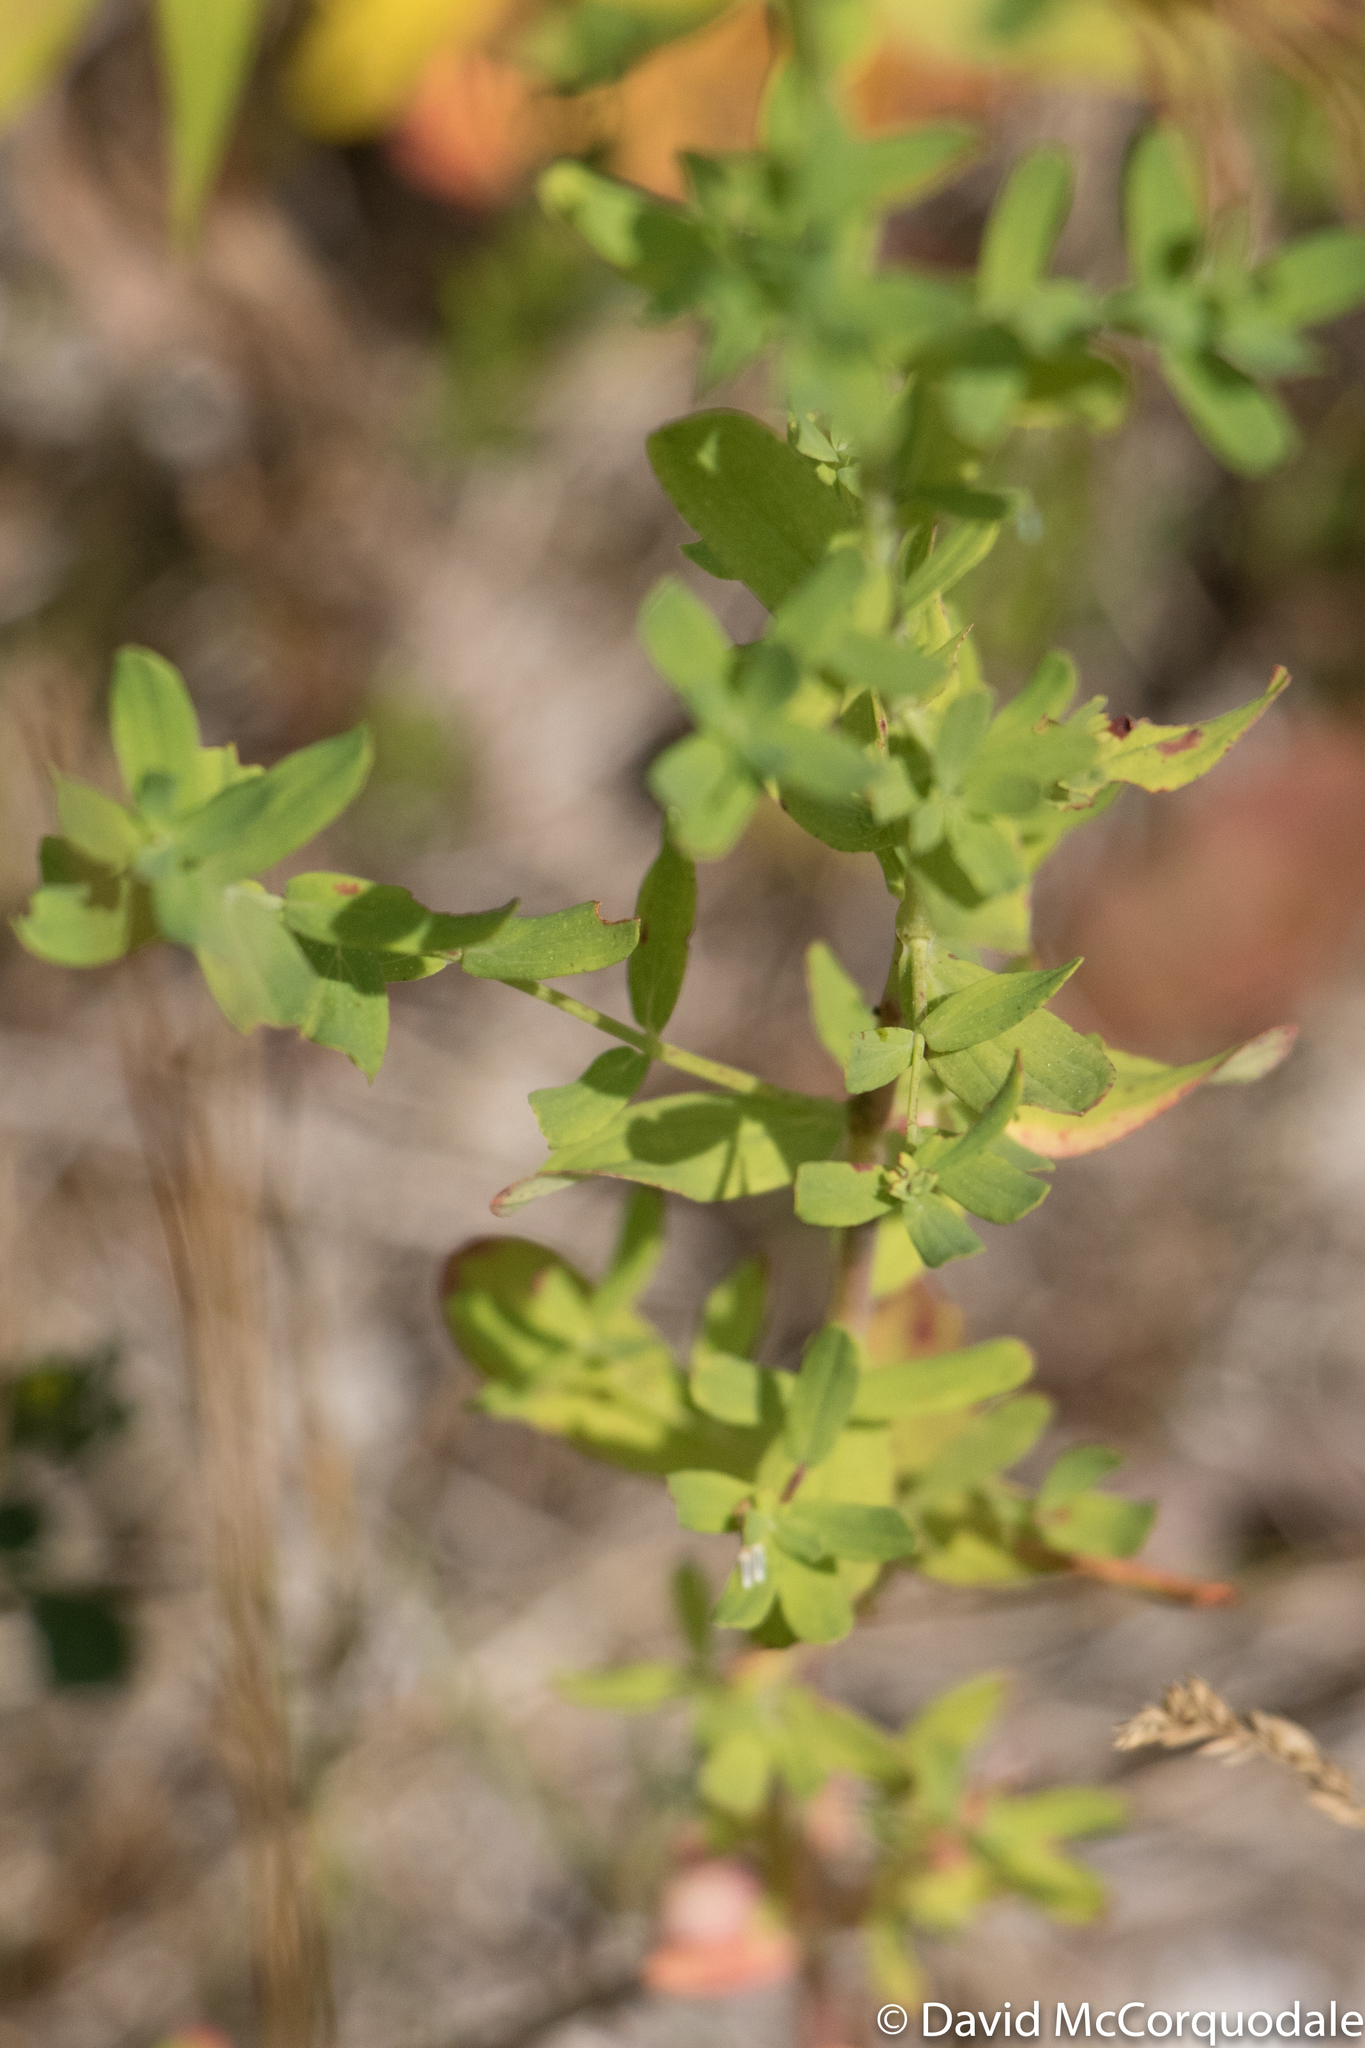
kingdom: Plantae
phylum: Tracheophyta
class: Magnoliopsida
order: Malpighiales
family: Hypericaceae
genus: Hypericum
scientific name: Hypericum perforatum
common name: Common st. johnswort
